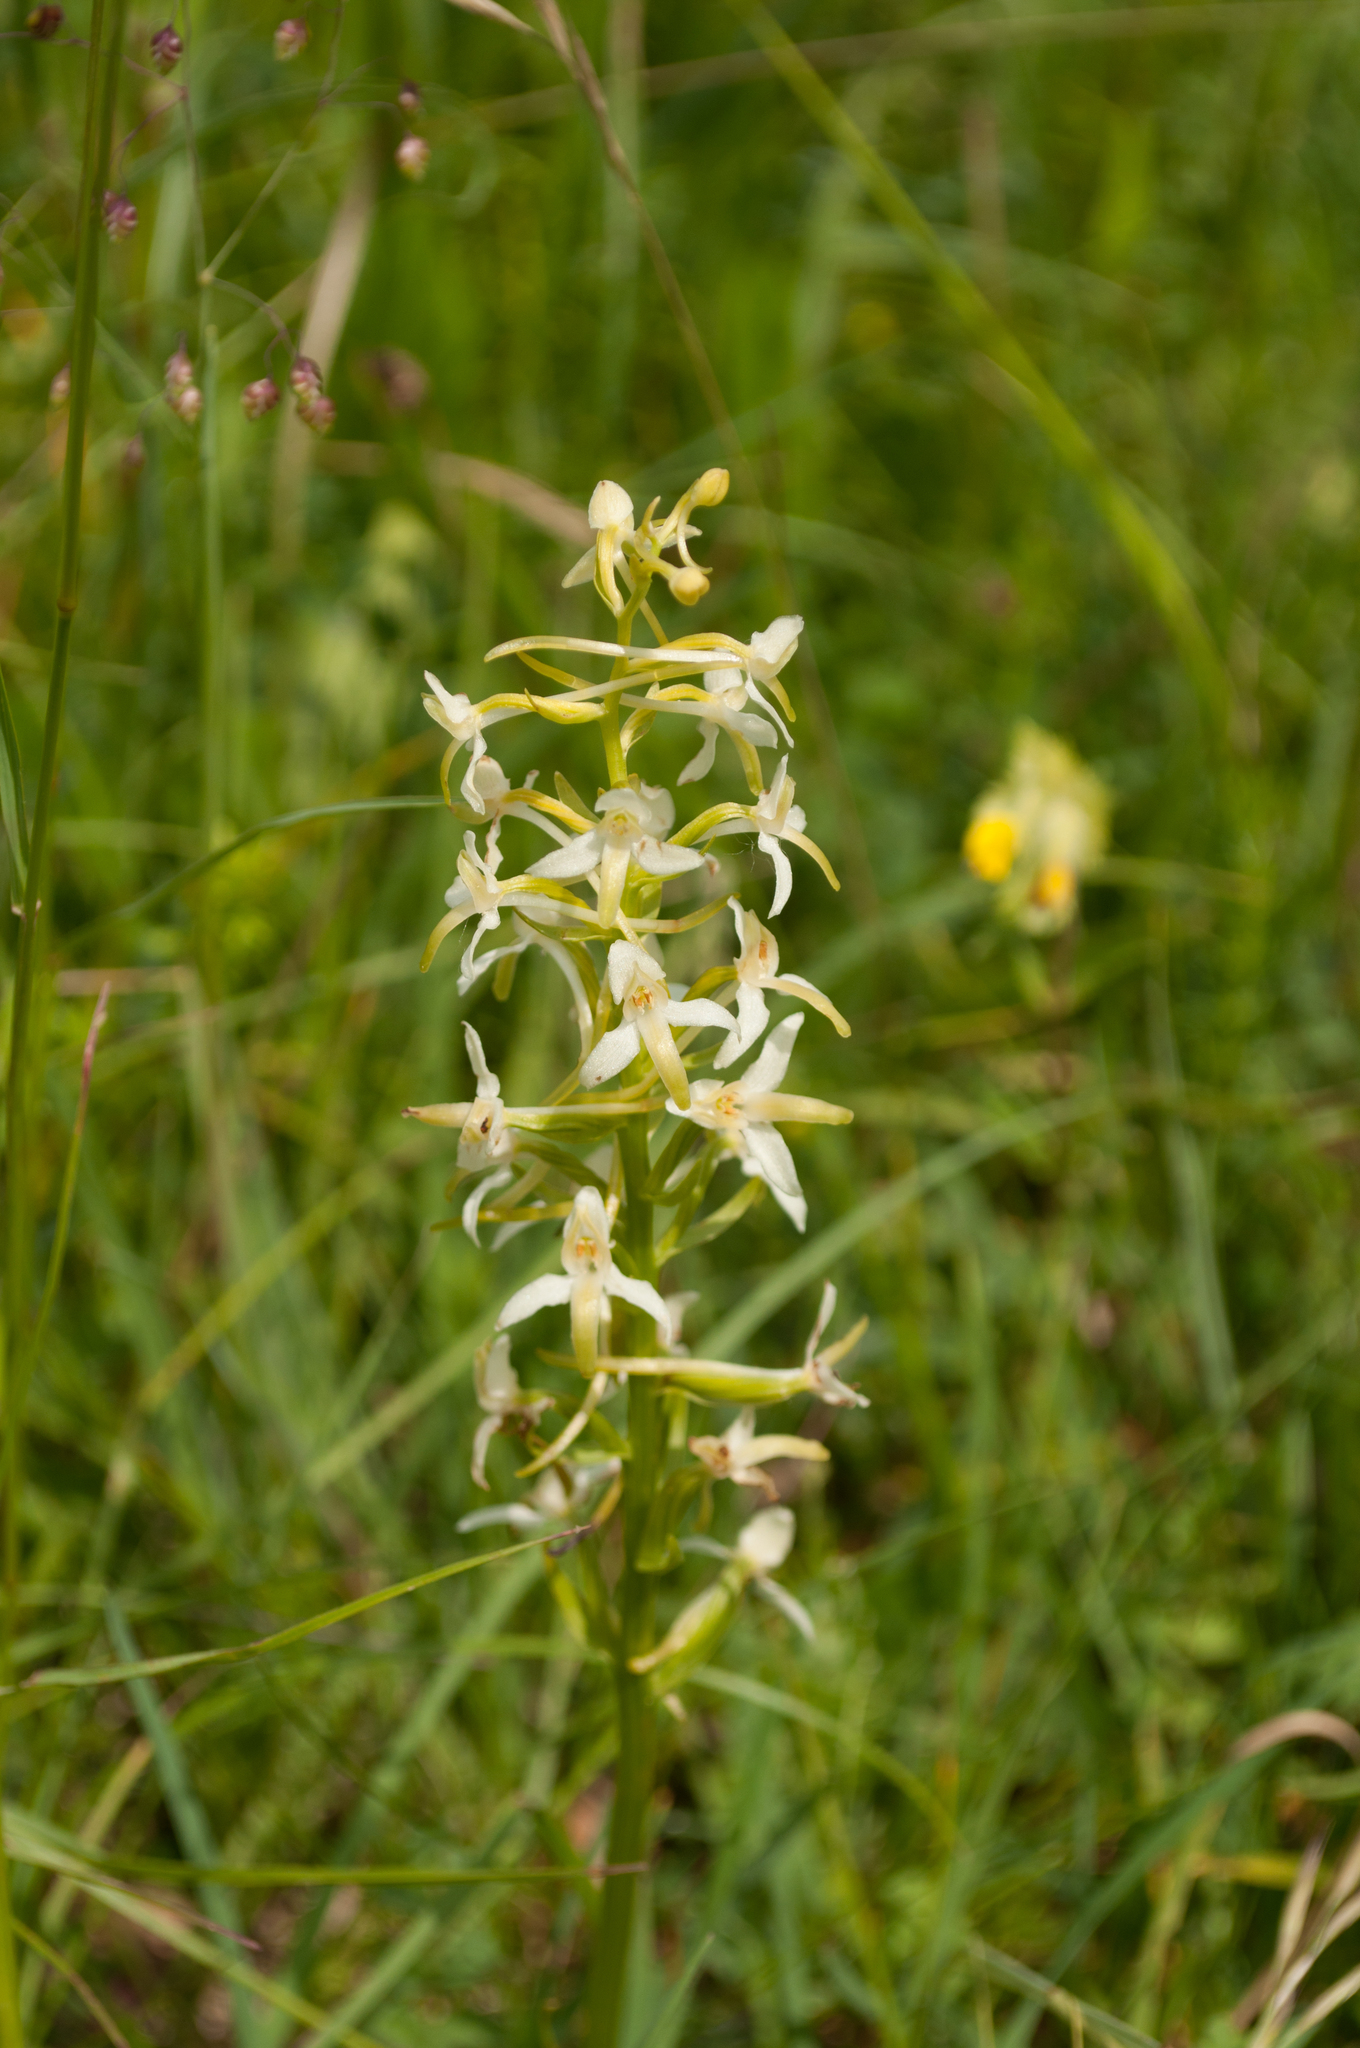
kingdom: Plantae
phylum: Tracheophyta
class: Liliopsida
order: Asparagales
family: Orchidaceae
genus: Platanthera
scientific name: Platanthera bifolia
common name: Lesser butterfly-orchid
